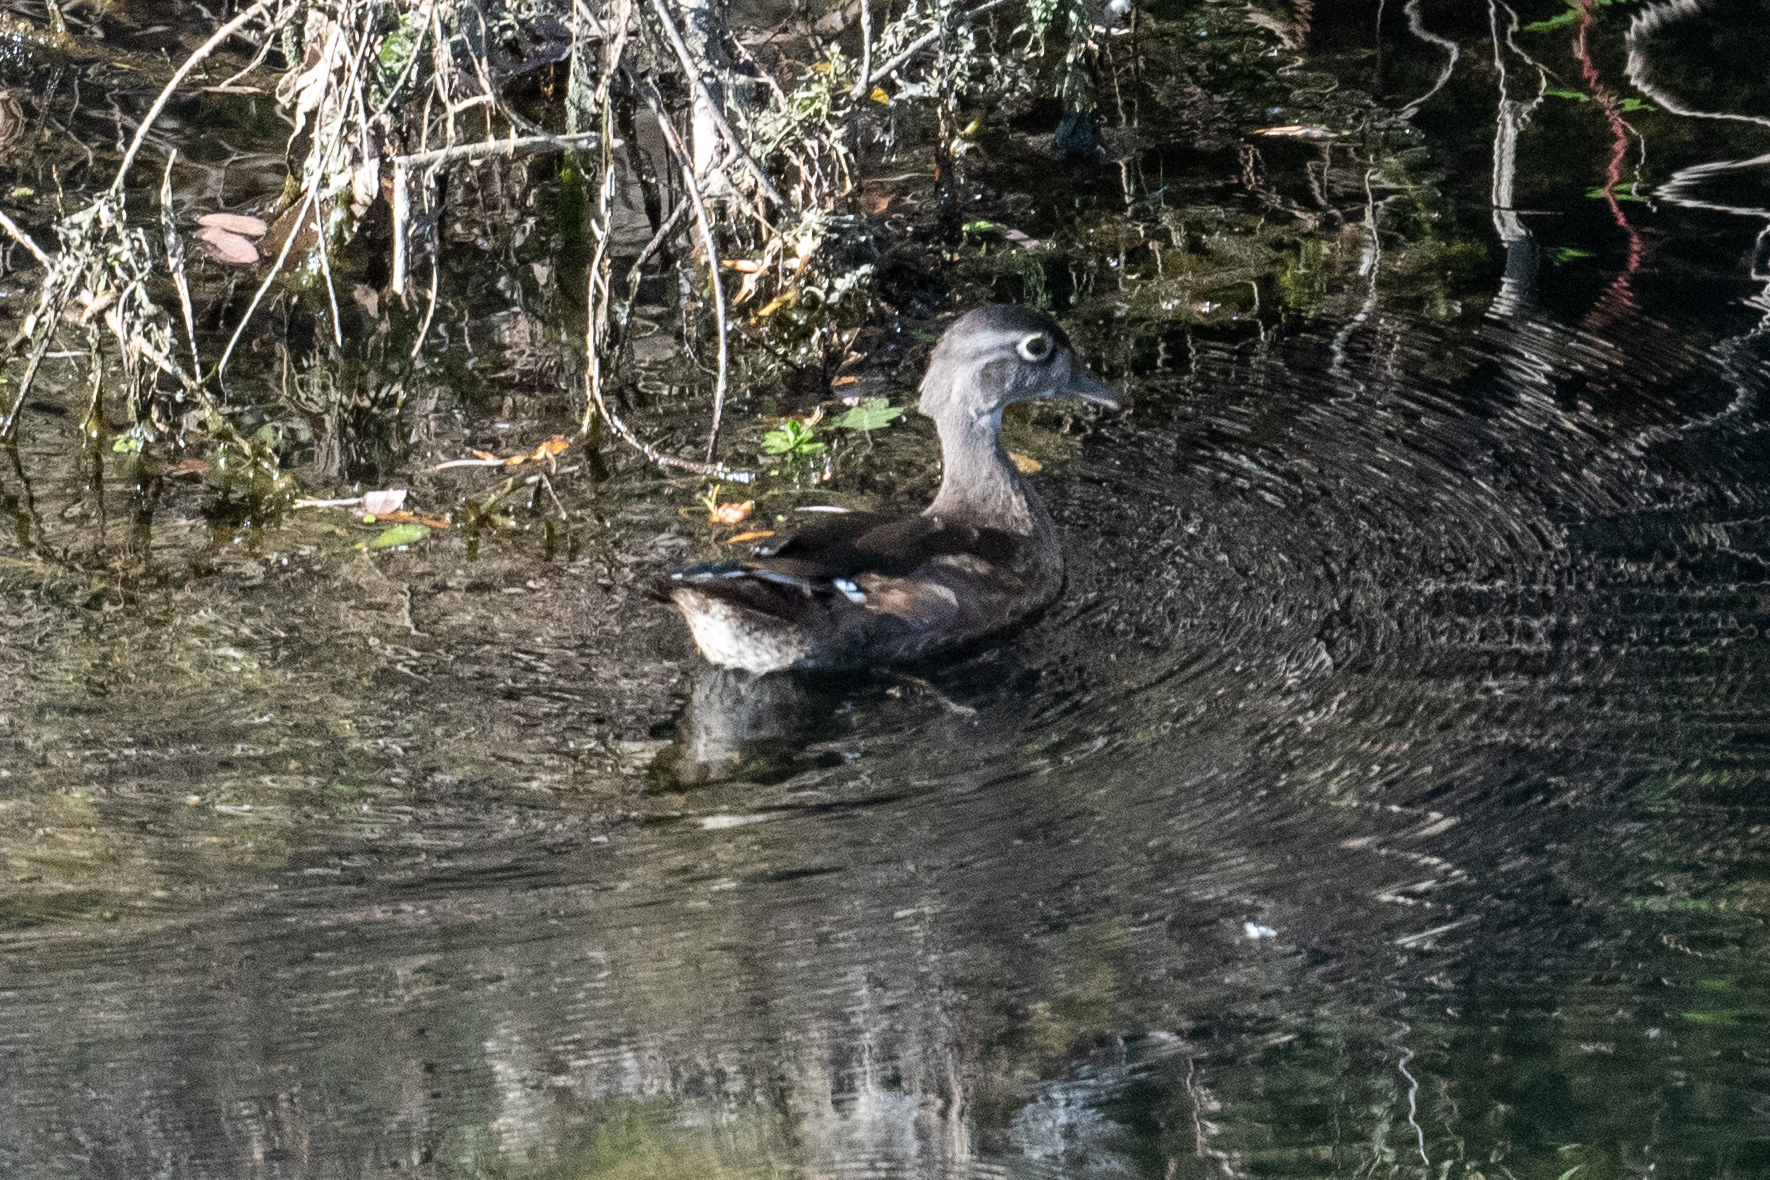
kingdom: Animalia
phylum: Chordata
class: Aves
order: Anseriformes
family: Anatidae
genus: Aix
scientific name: Aix sponsa
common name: Wood duck
